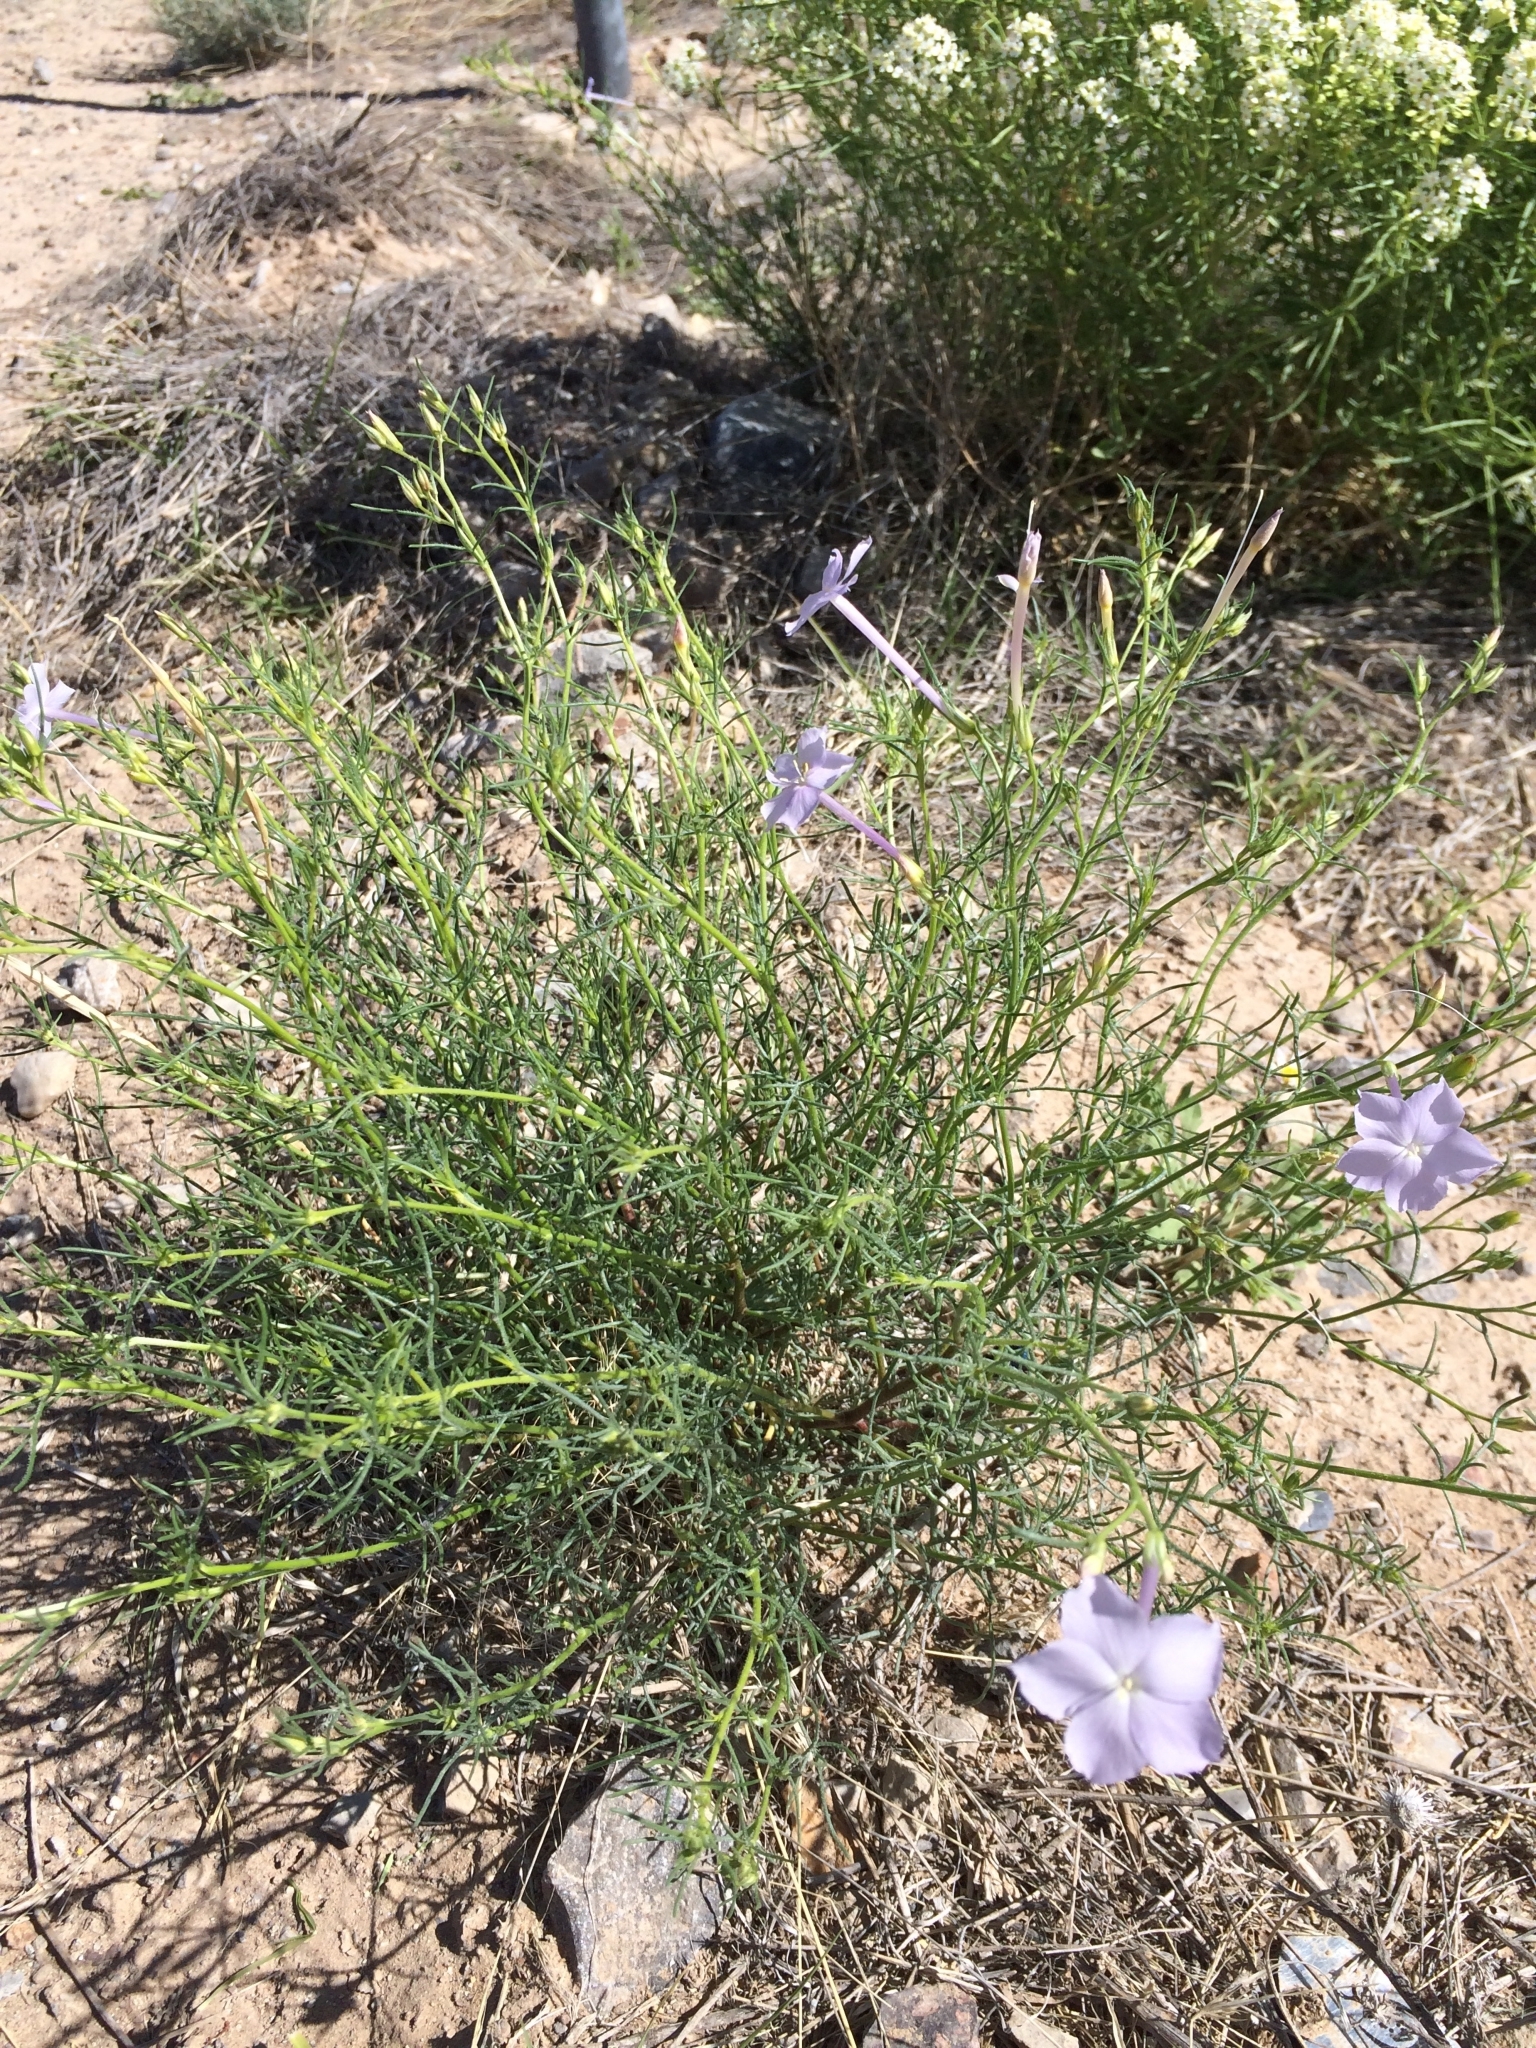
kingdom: Plantae
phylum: Tracheophyta
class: Magnoliopsida
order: Ericales
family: Polemoniaceae
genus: Ipomopsis
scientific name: Ipomopsis longiflora
